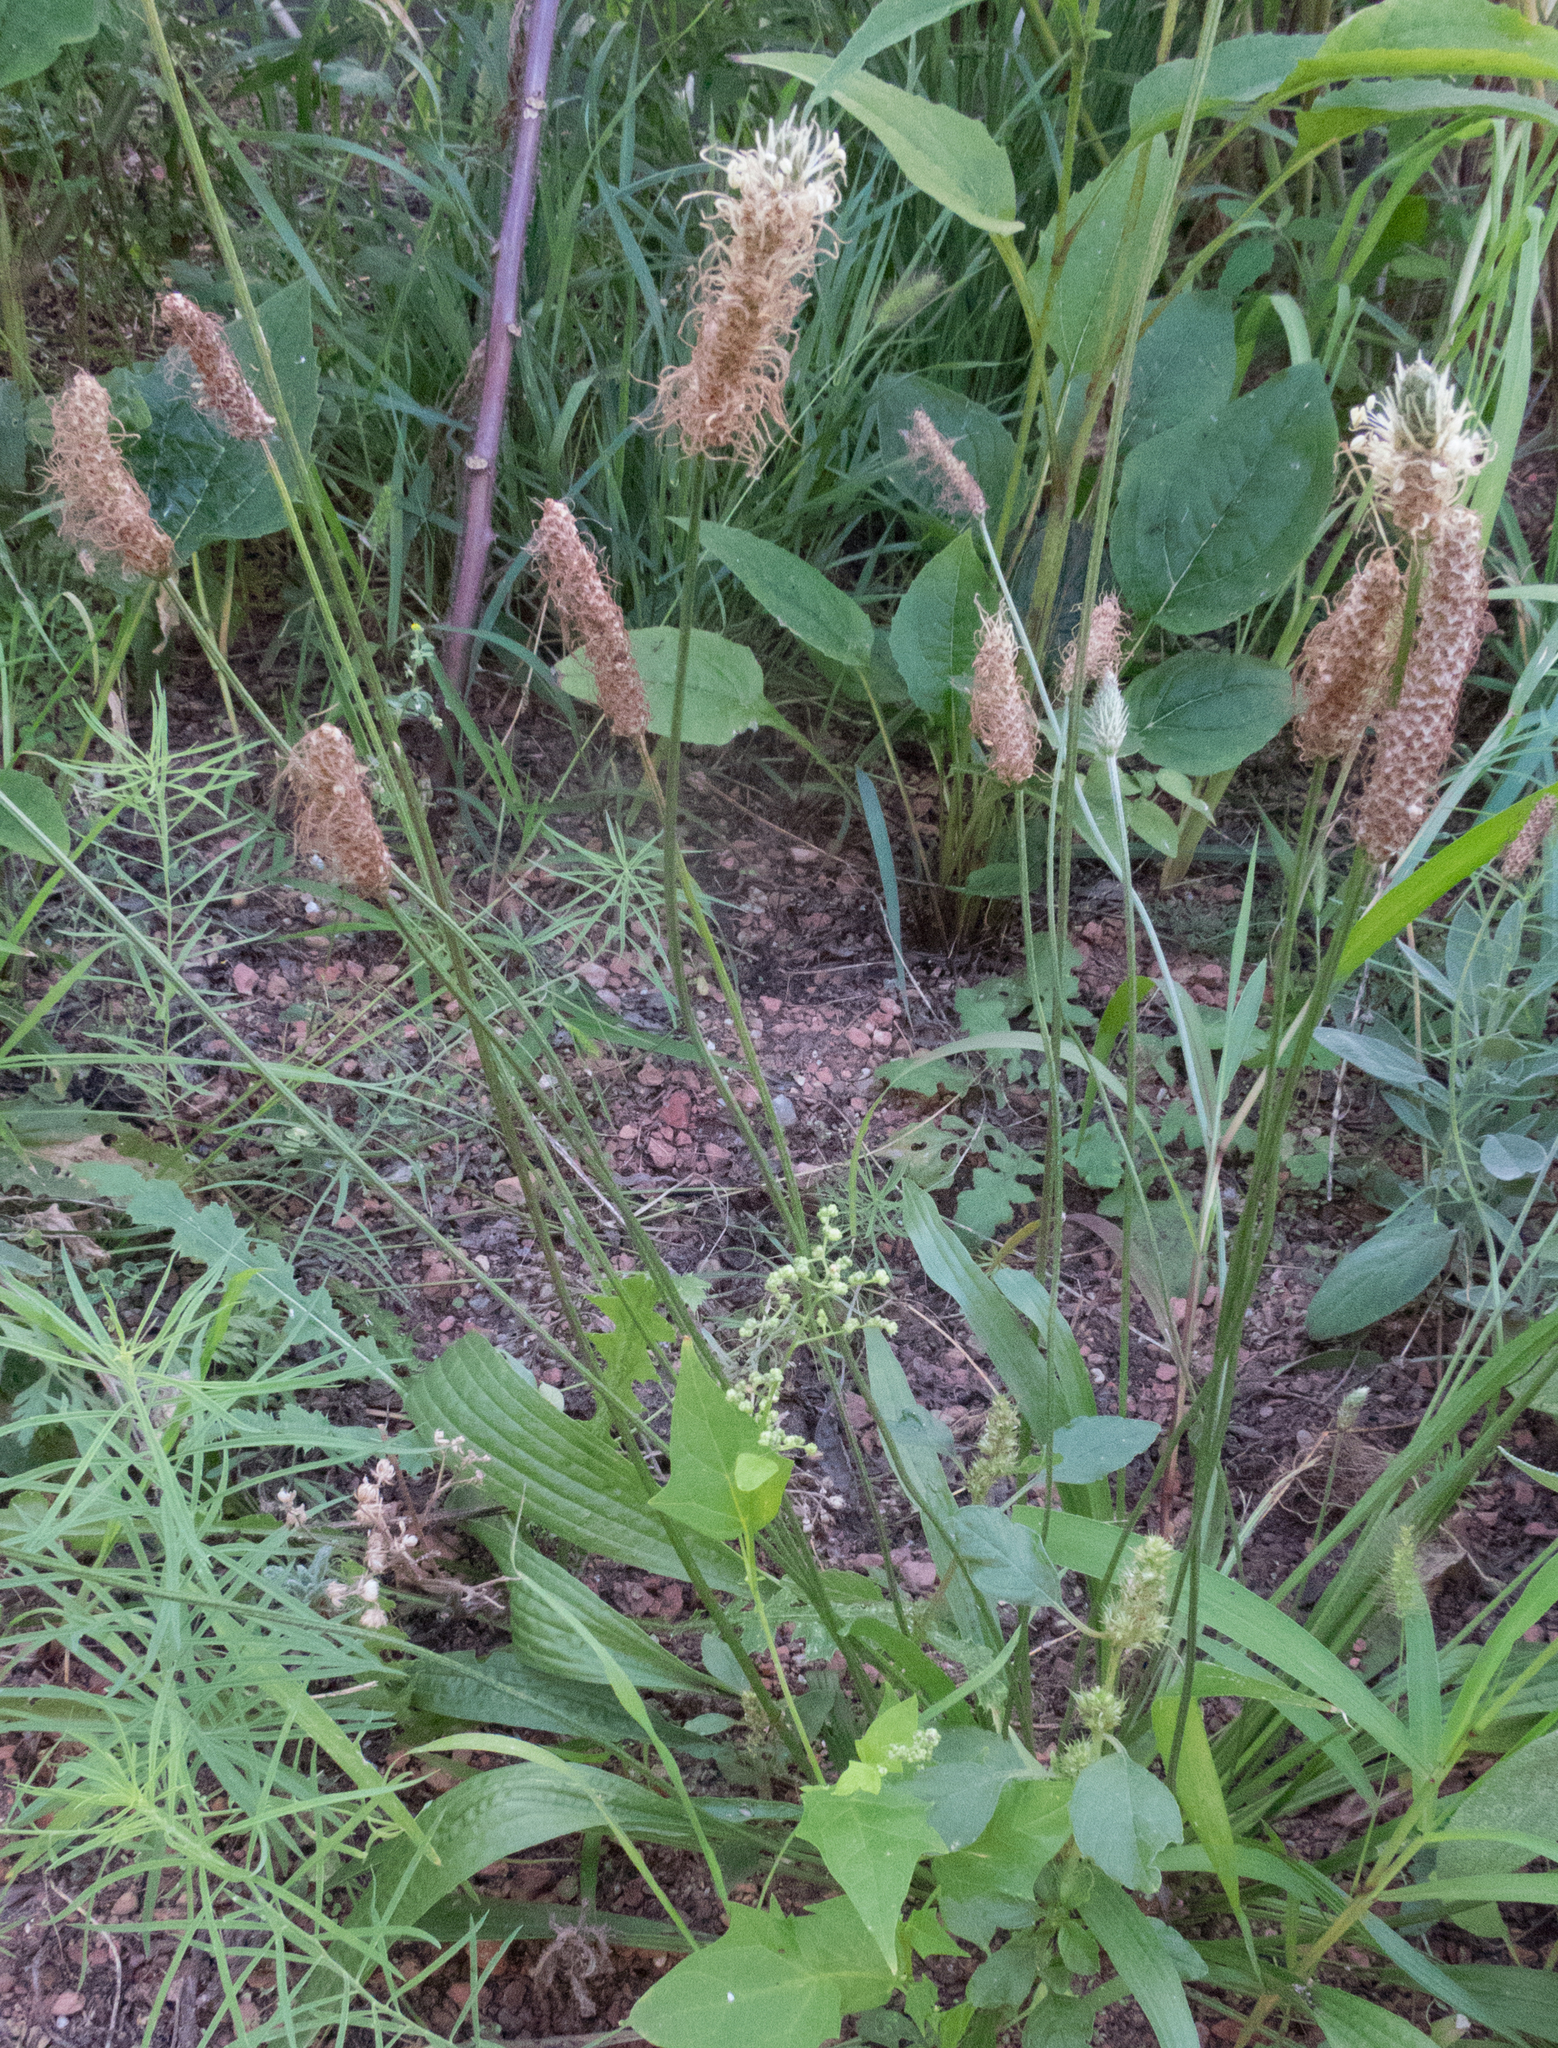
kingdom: Plantae
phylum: Tracheophyta
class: Magnoliopsida
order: Lamiales
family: Plantaginaceae
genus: Plantago
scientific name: Plantago lanceolata
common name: Ribwort plantain
